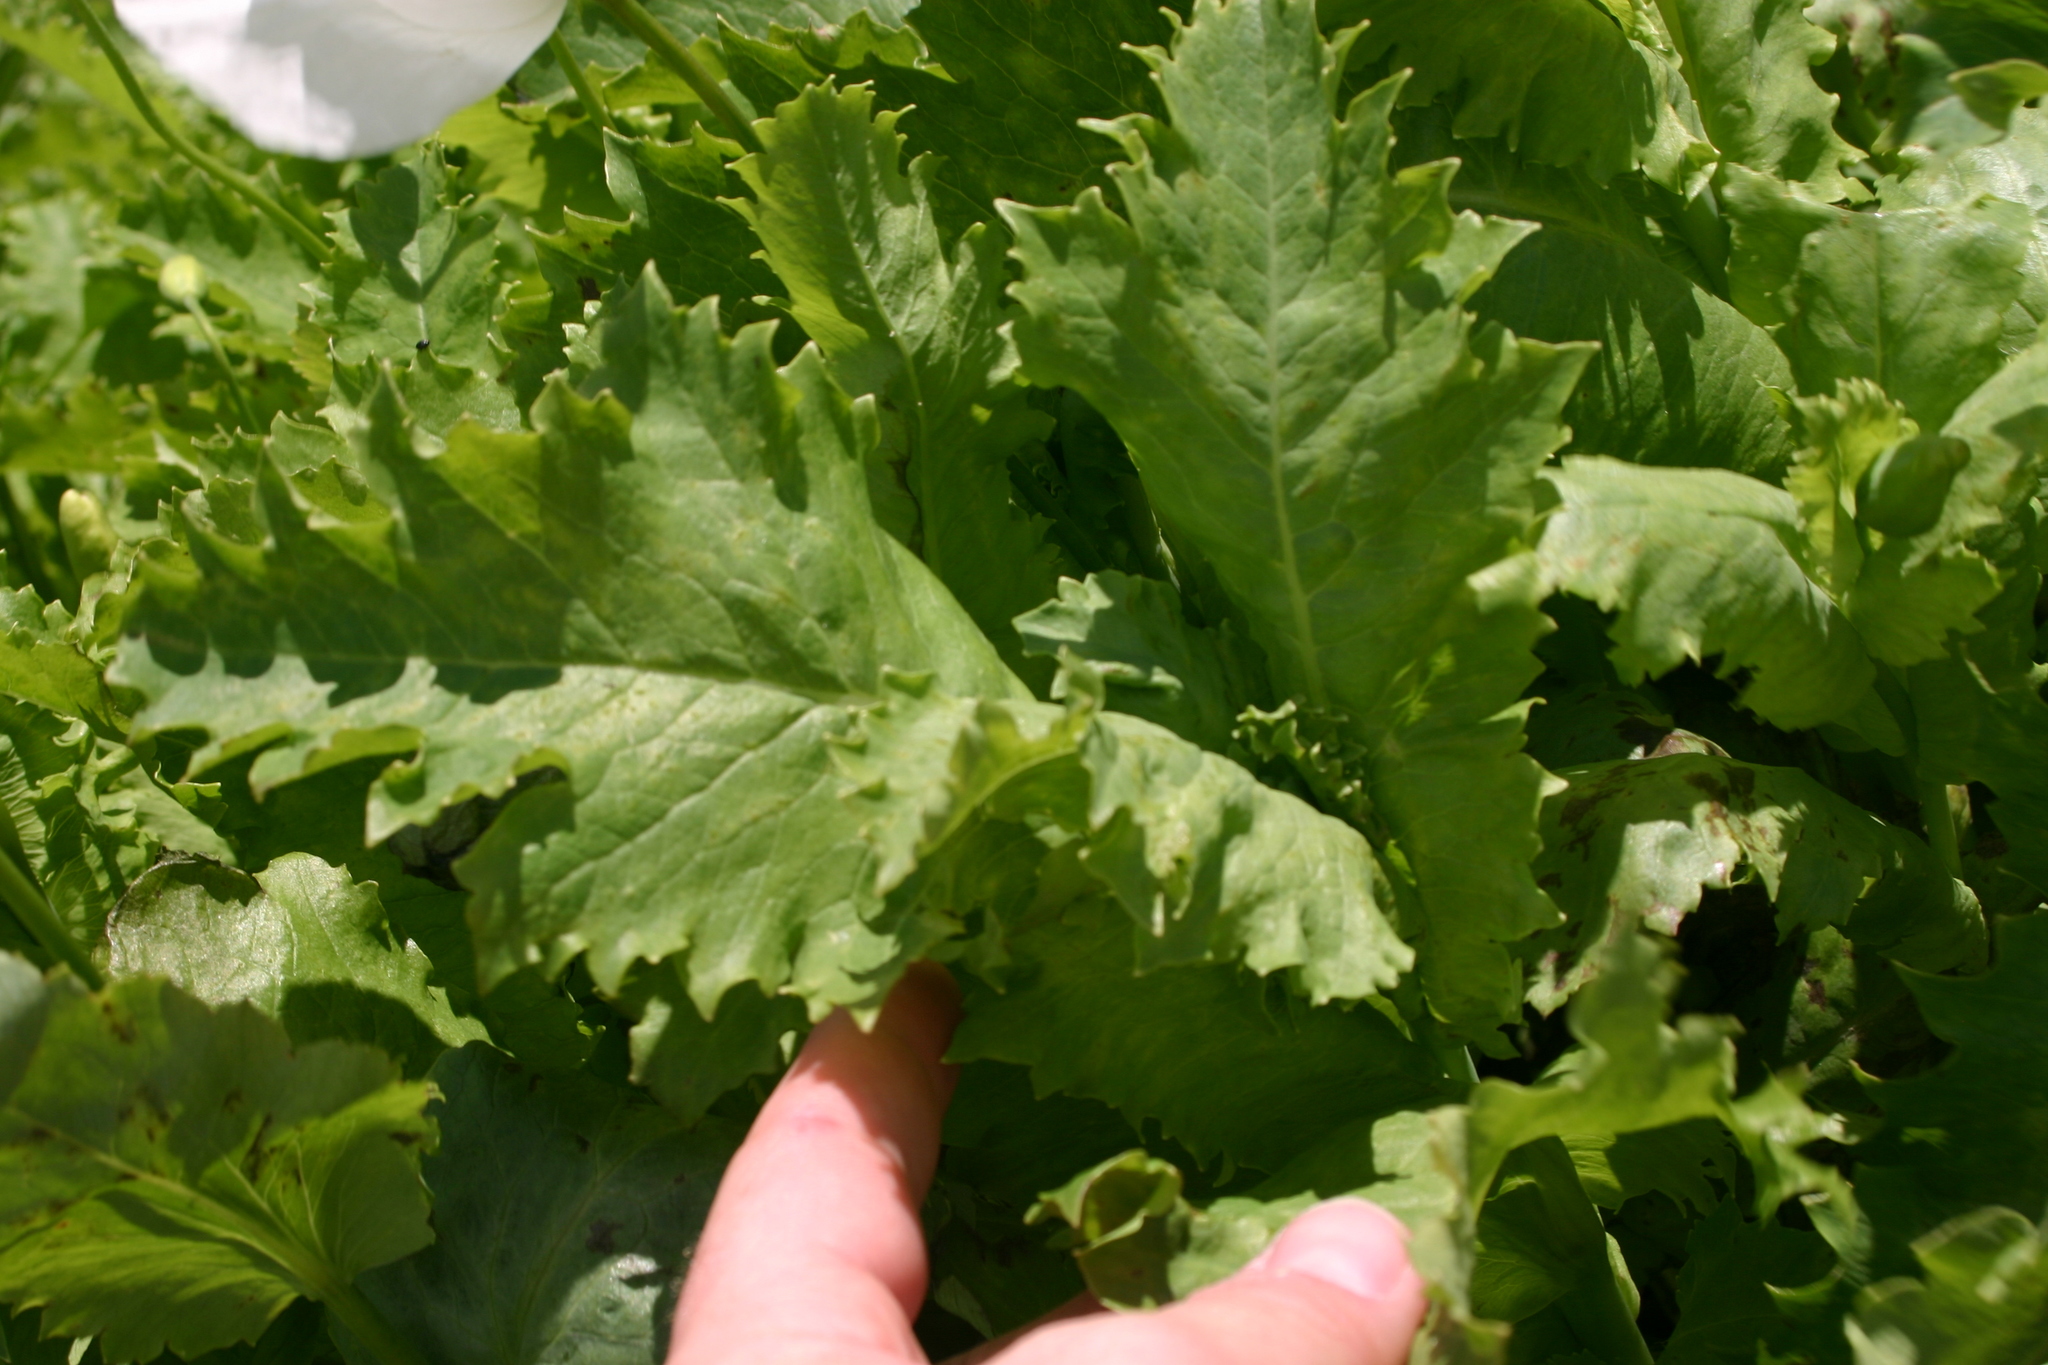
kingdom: Plantae
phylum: Tracheophyta
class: Magnoliopsida
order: Ranunculales
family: Papaveraceae
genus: Papaver
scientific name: Papaver somniferum
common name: Opium poppy
